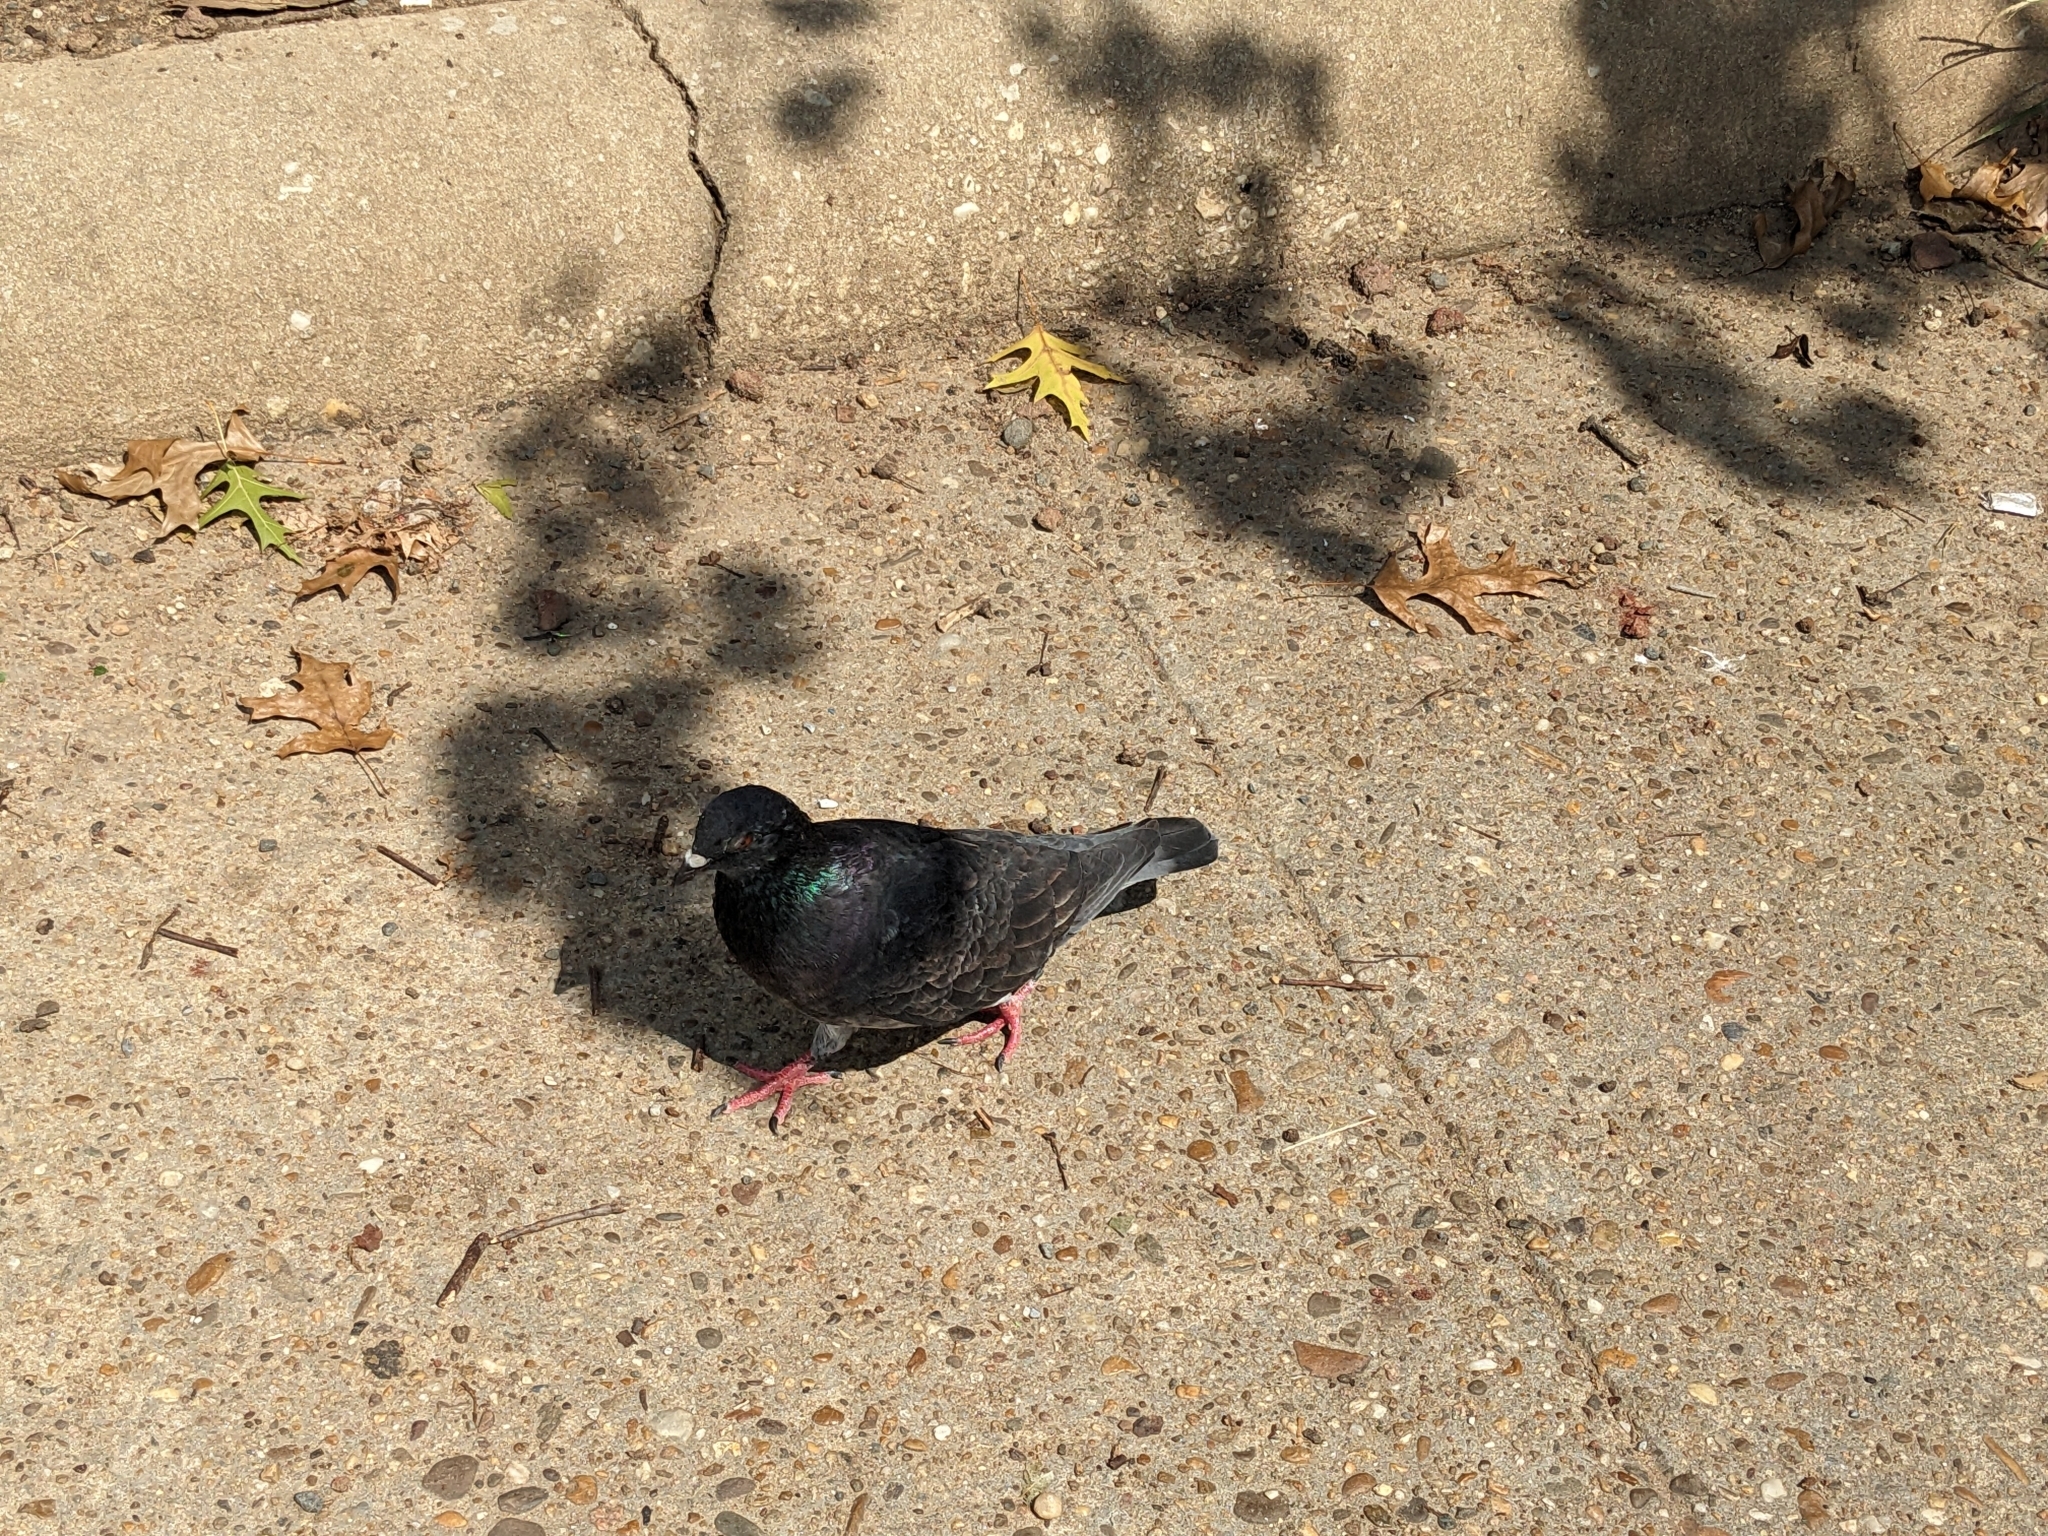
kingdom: Animalia
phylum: Chordata
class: Aves
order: Columbiformes
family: Columbidae
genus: Columba
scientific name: Columba livia
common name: Rock pigeon
